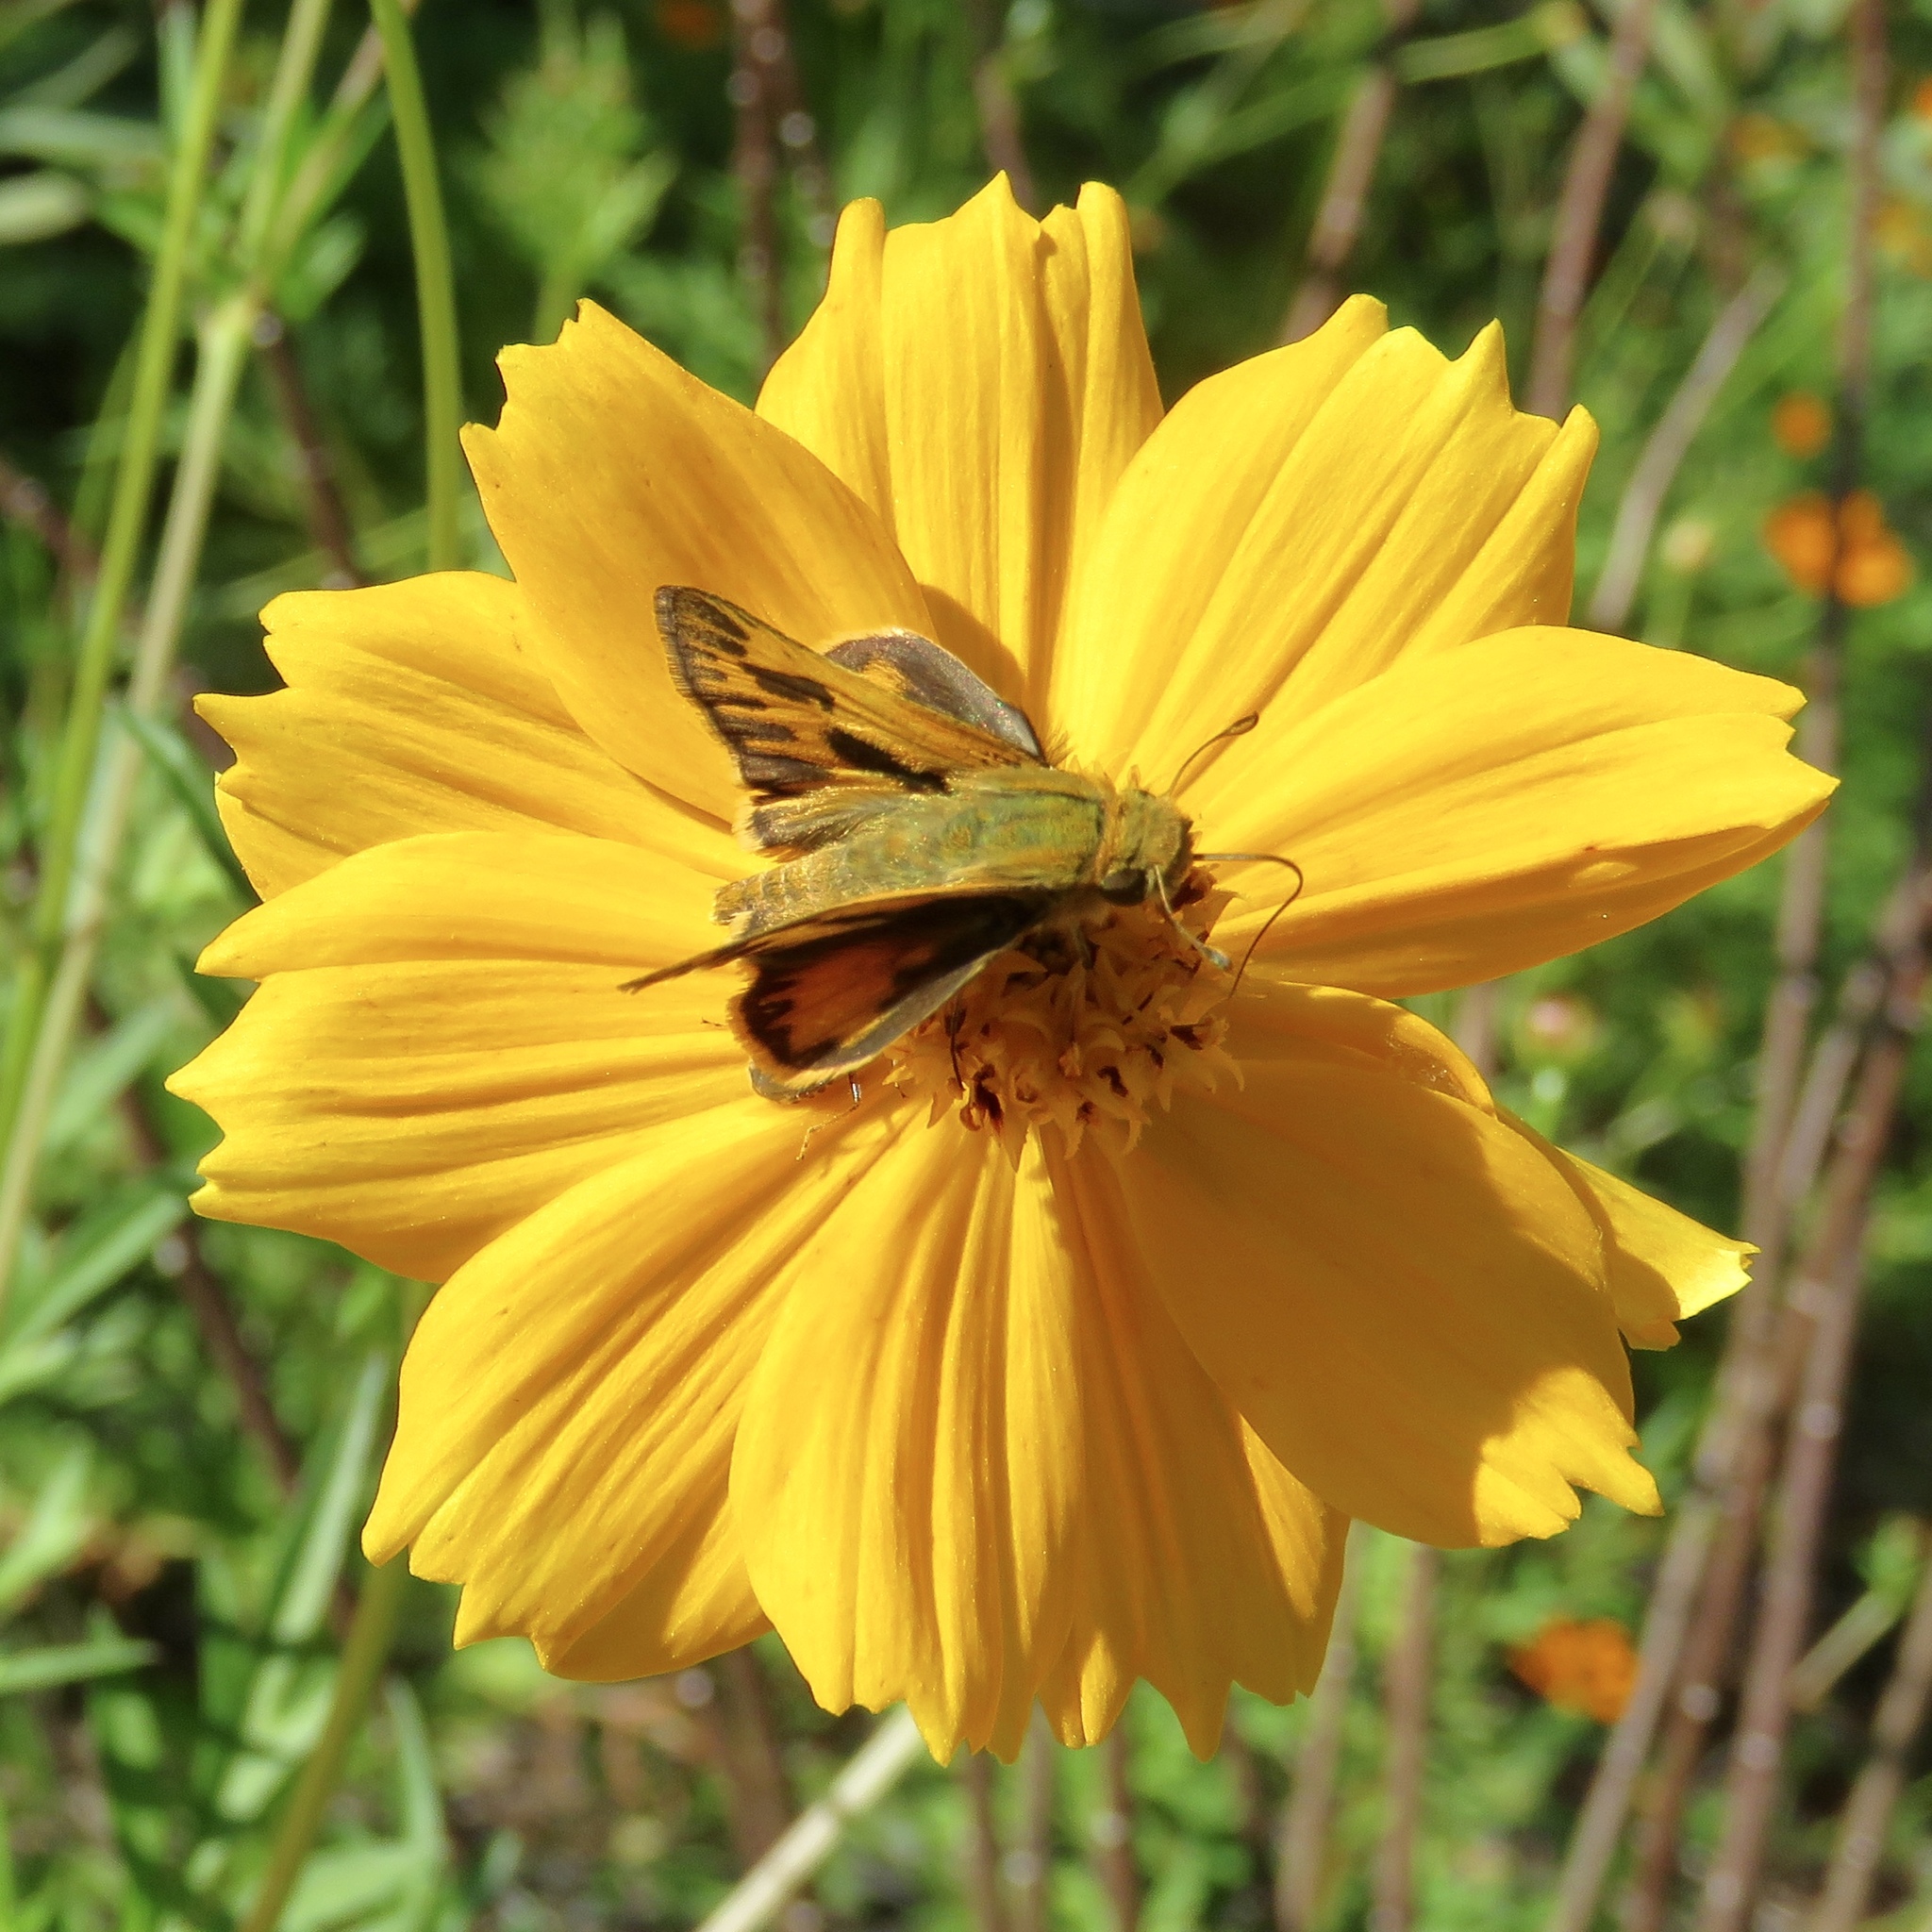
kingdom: Animalia
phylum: Arthropoda
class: Insecta
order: Lepidoptera
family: Hesperiidae
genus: Hylephila
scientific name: Hylephila phyleus
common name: Fiery skipper
